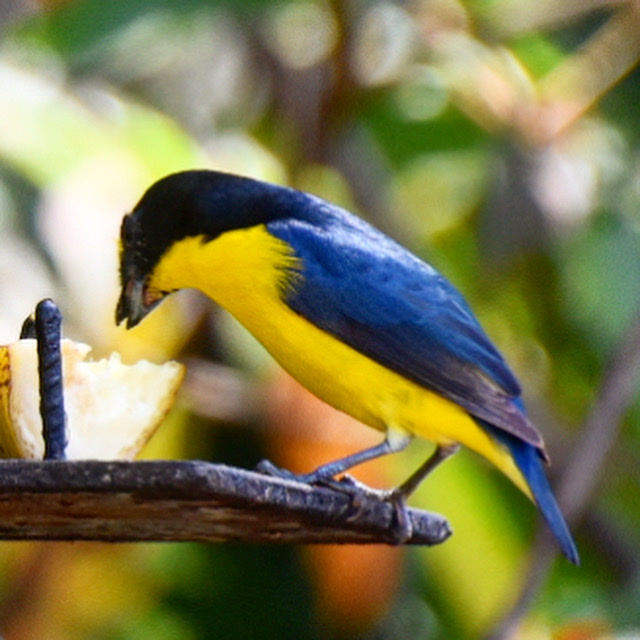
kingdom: Animalia
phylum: Chordata
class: Aves
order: Passeriformes
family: Fringillidae
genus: Euphonia
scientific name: Euphonia hirundinacea
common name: Yellow-throated euphonia
